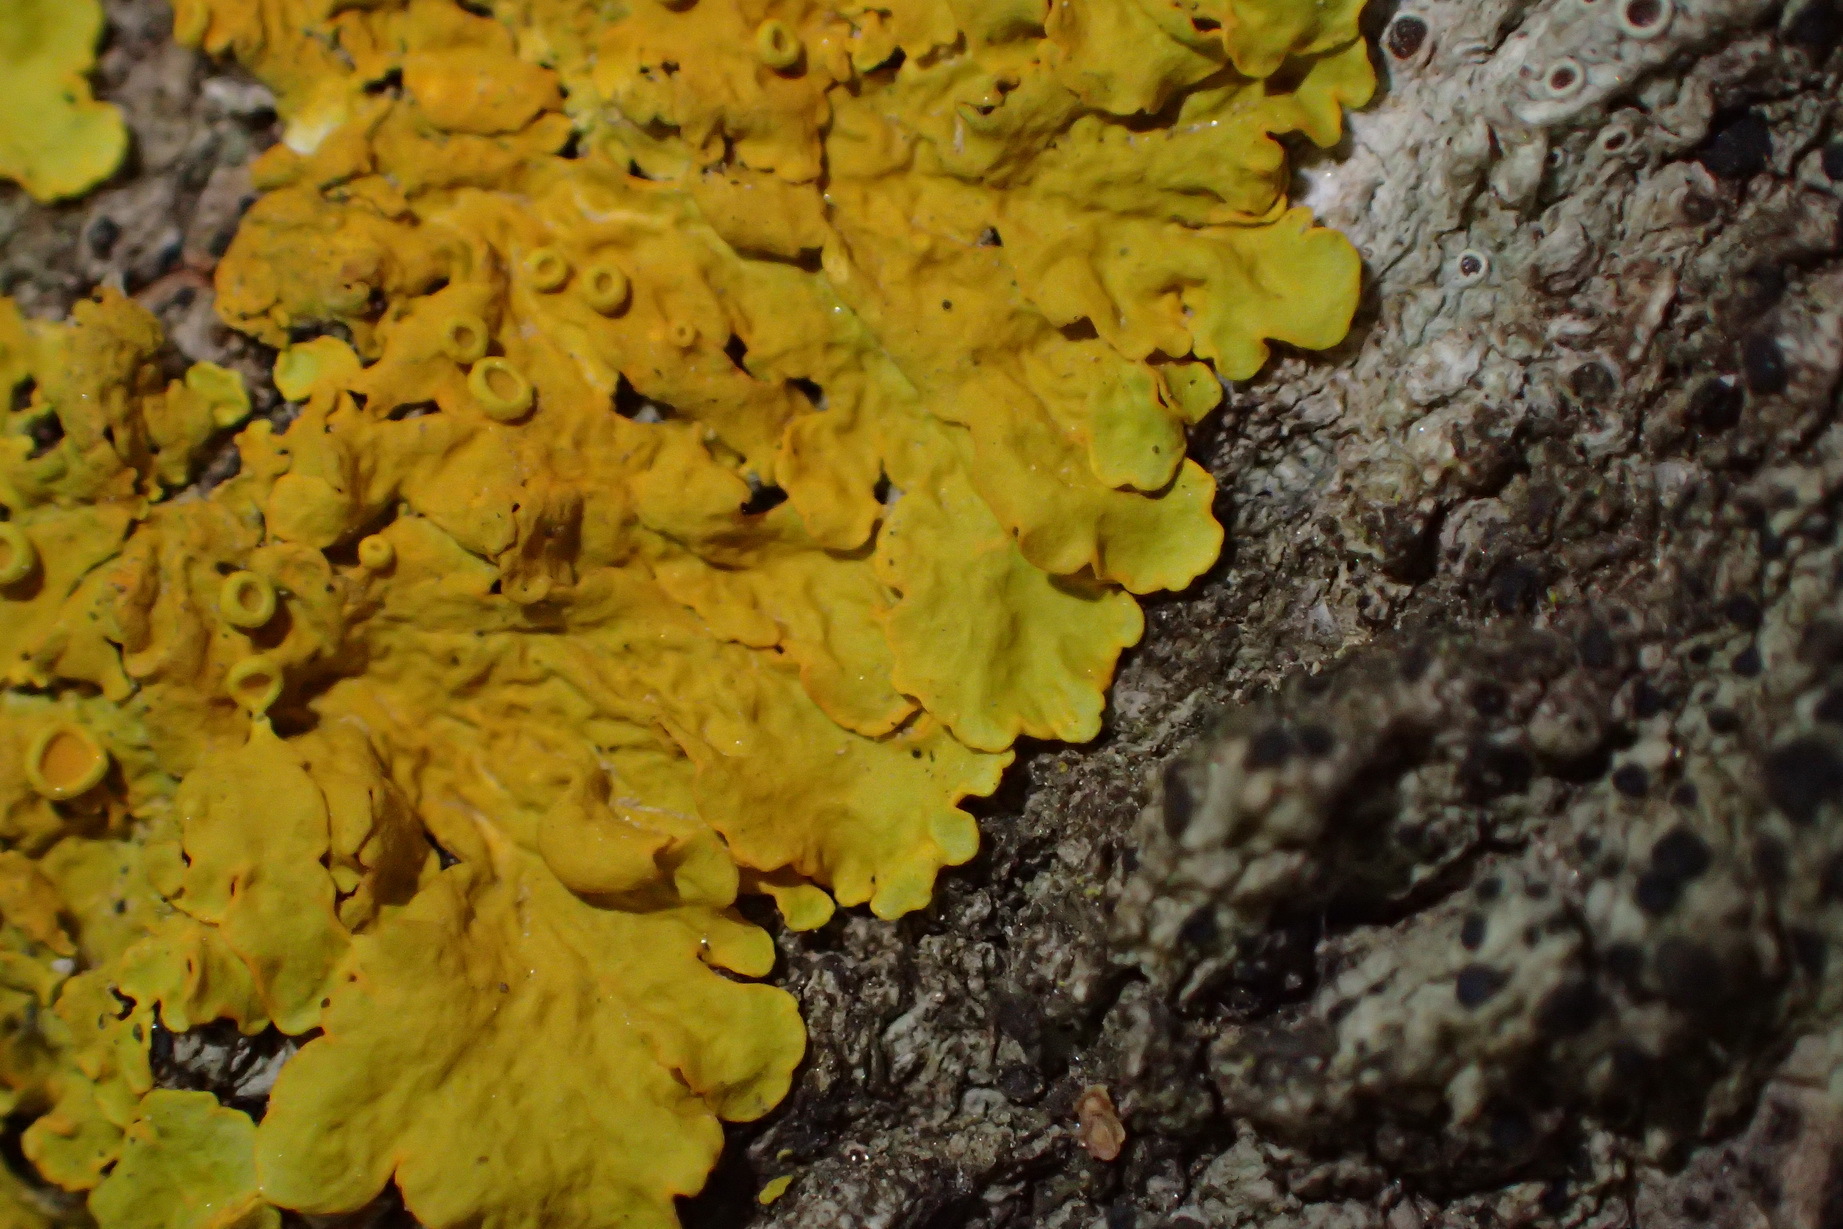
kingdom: Fungi
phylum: Ascomycota
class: Lecanoromycetes
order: Teloschistales
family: Teloschistaceae
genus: Xanthoria
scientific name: Xanthoria parietina
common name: Common orange lichen
